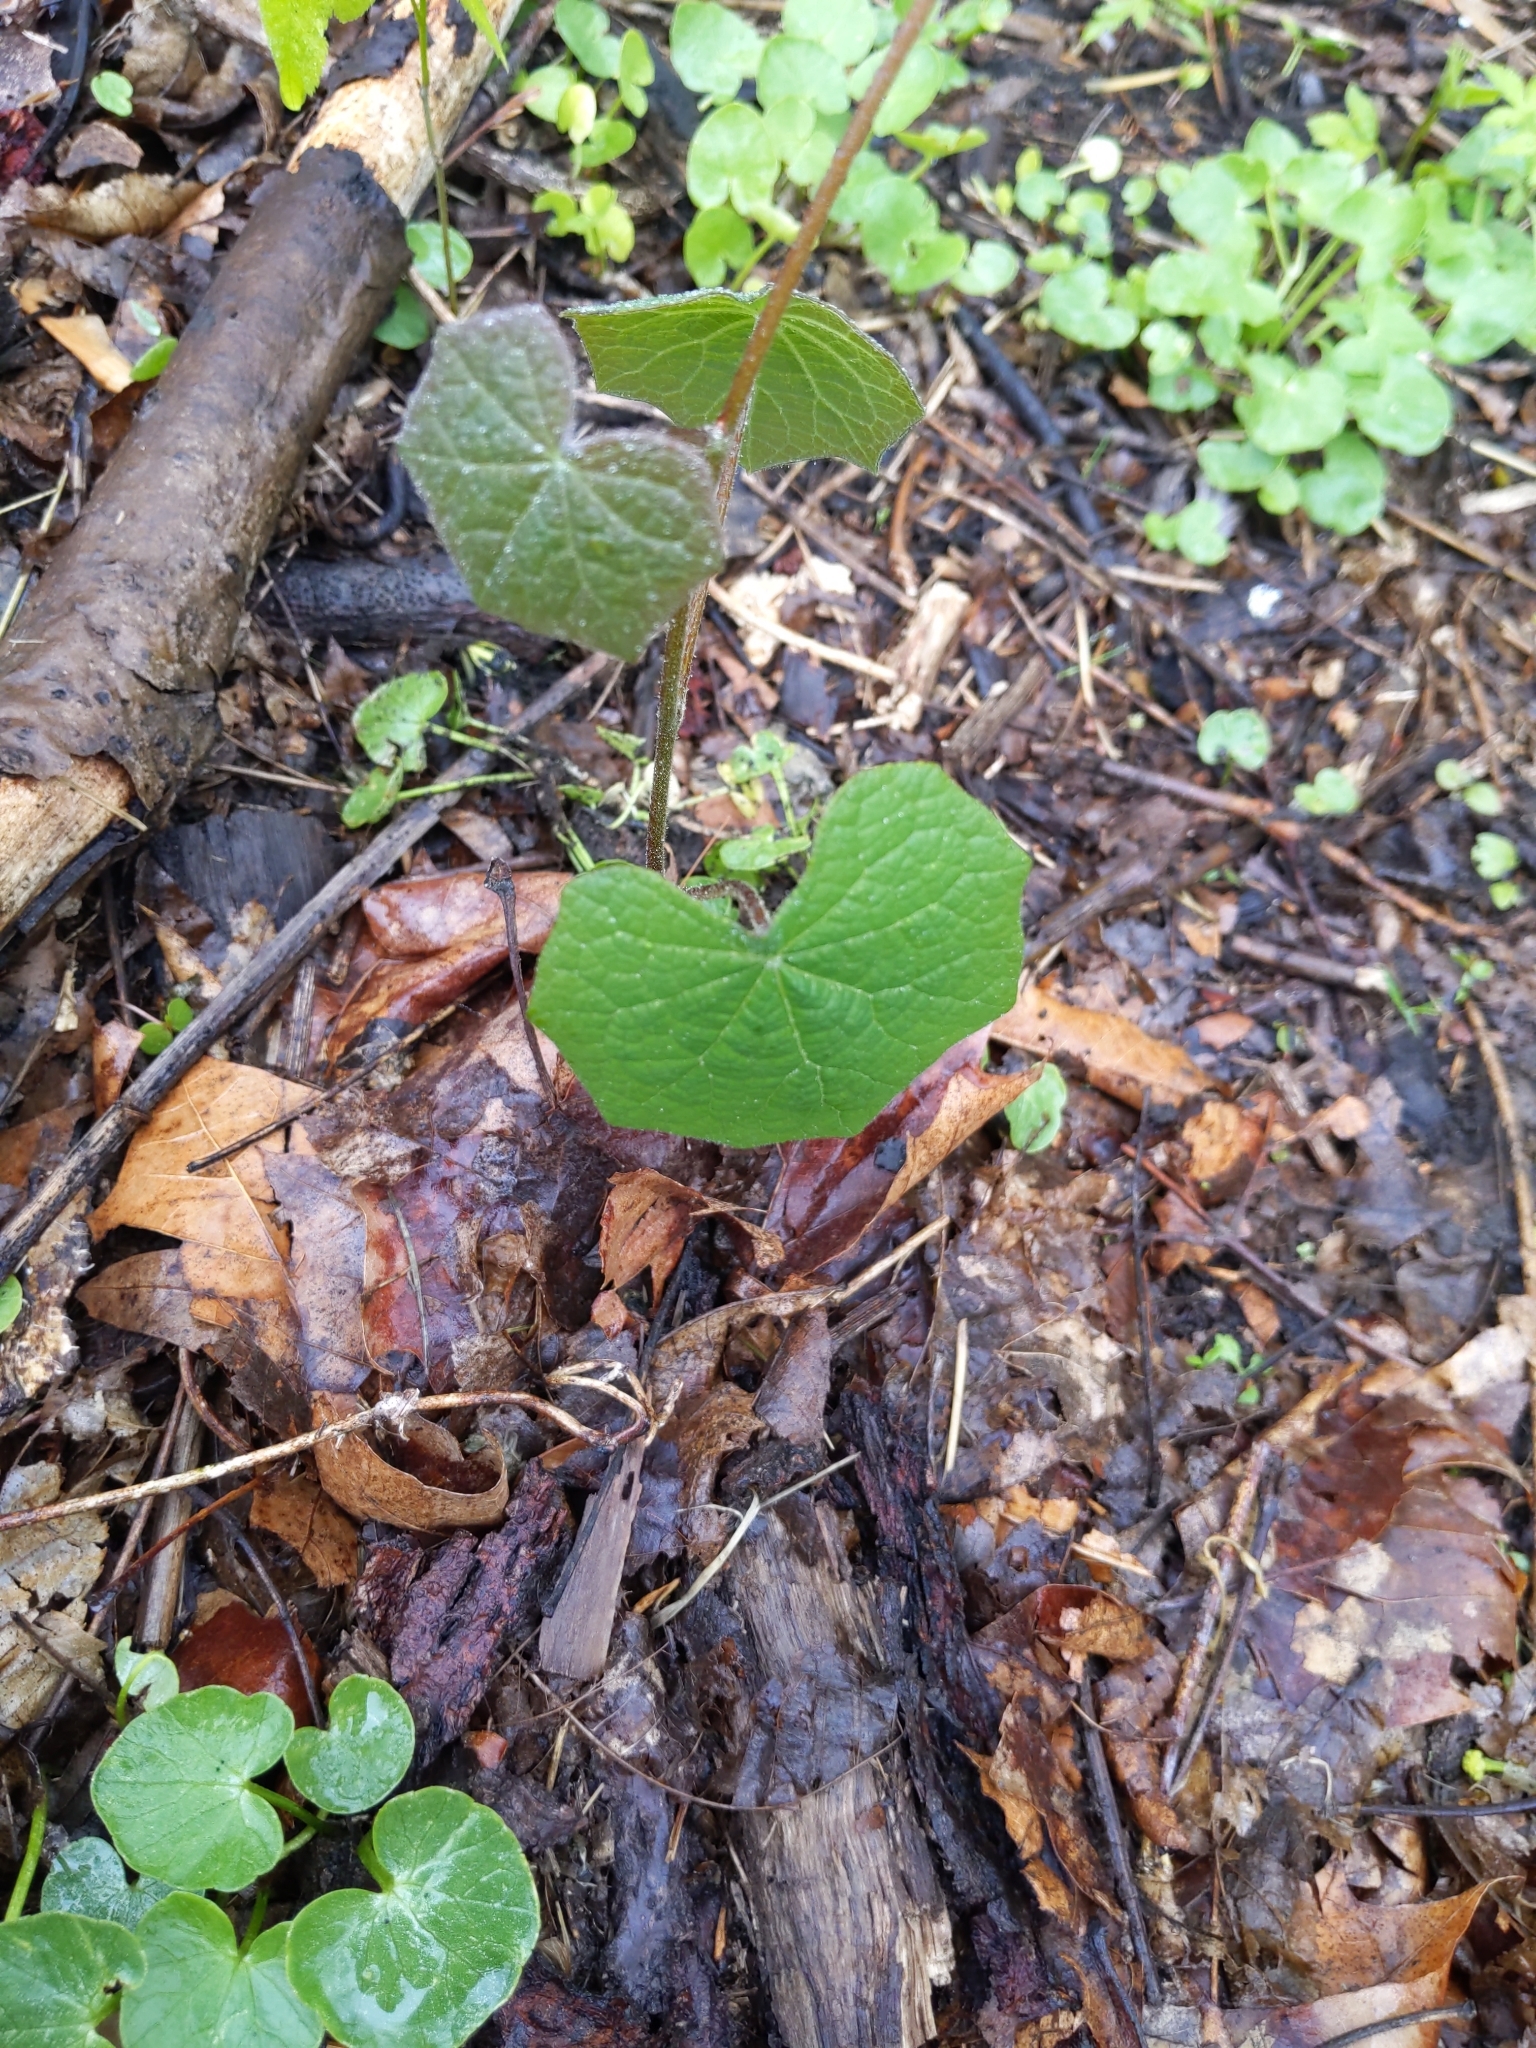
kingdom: Plantae
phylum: Tracheophyta
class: Magnoliopsida
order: Ranunculales
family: Menispermaceae
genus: Menispermum
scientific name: Menispermum canadense
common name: Moonseed
